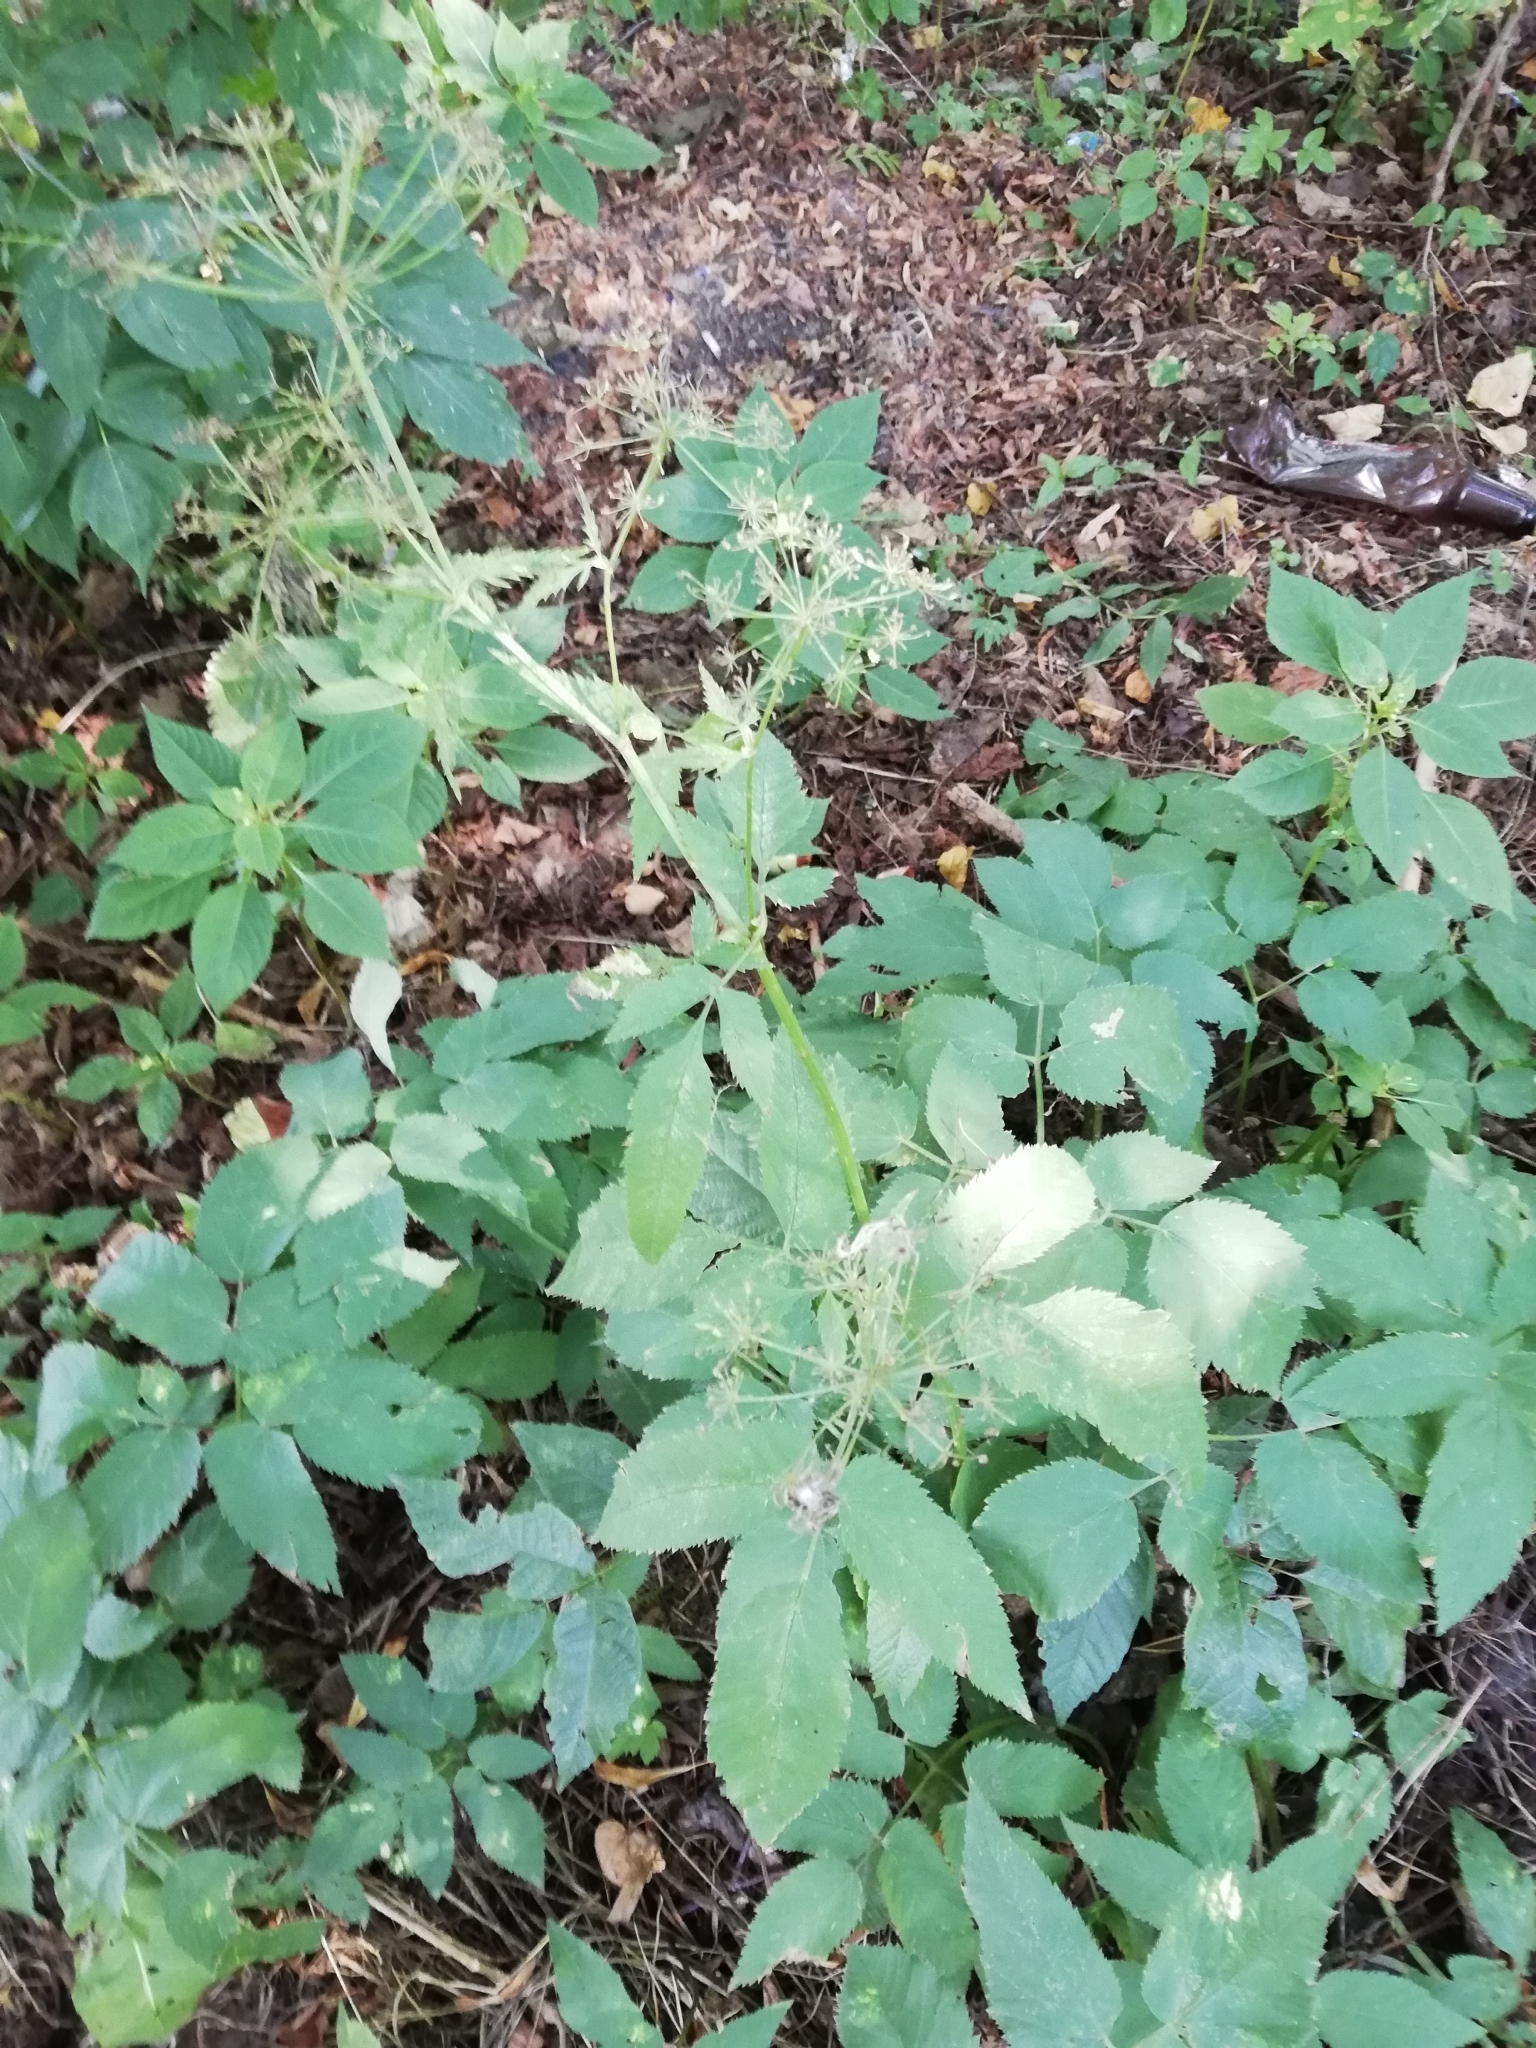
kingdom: Plantae
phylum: Tracheophyta
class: Magnoliopsida
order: Apiales
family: Apiaceae
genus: Aegopodium
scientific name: Aegopodium podagraria
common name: Ground-elder
